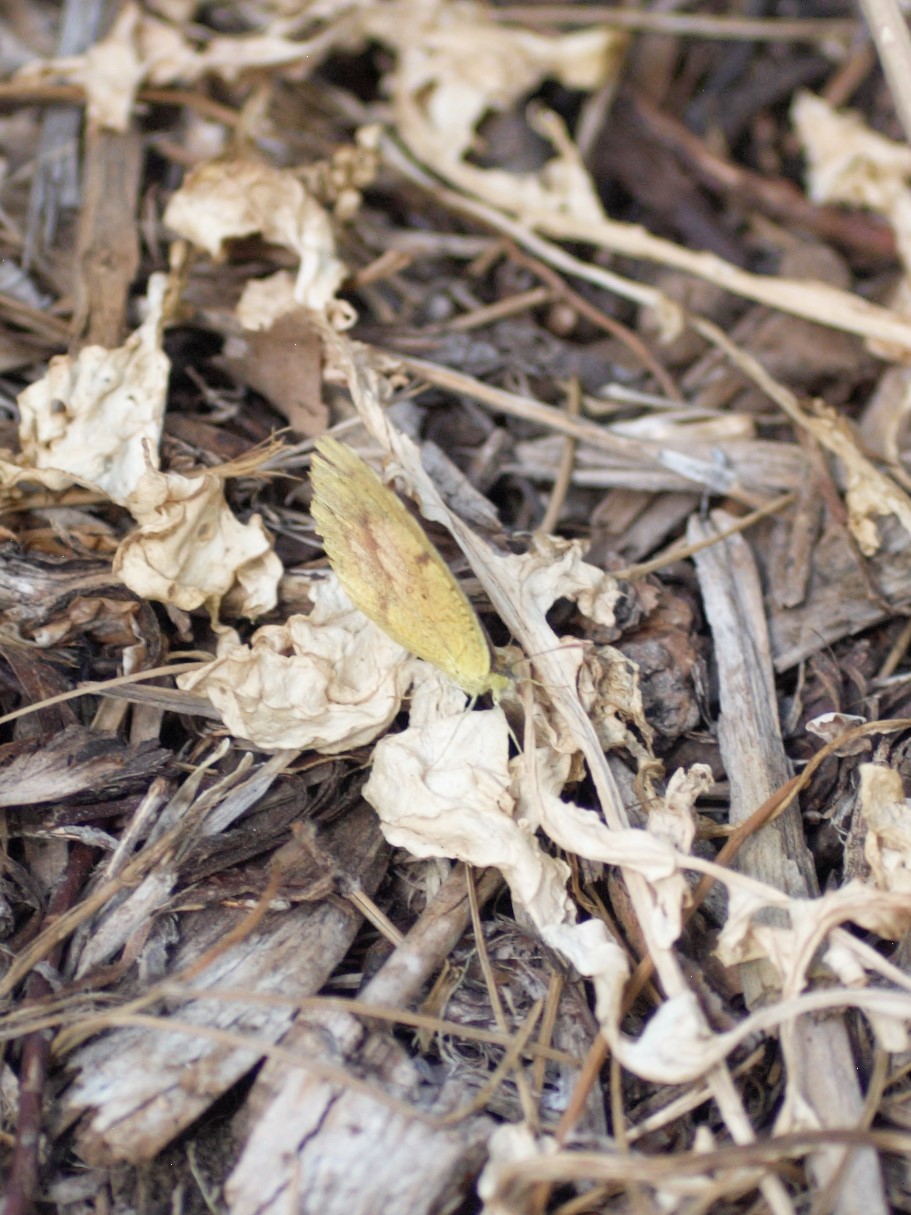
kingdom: Animalia
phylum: Arthropoda
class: Insecta
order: Lepidoptera
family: Pieridae
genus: Abaeis
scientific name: Abaeis nicippe
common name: Sleepy orange
